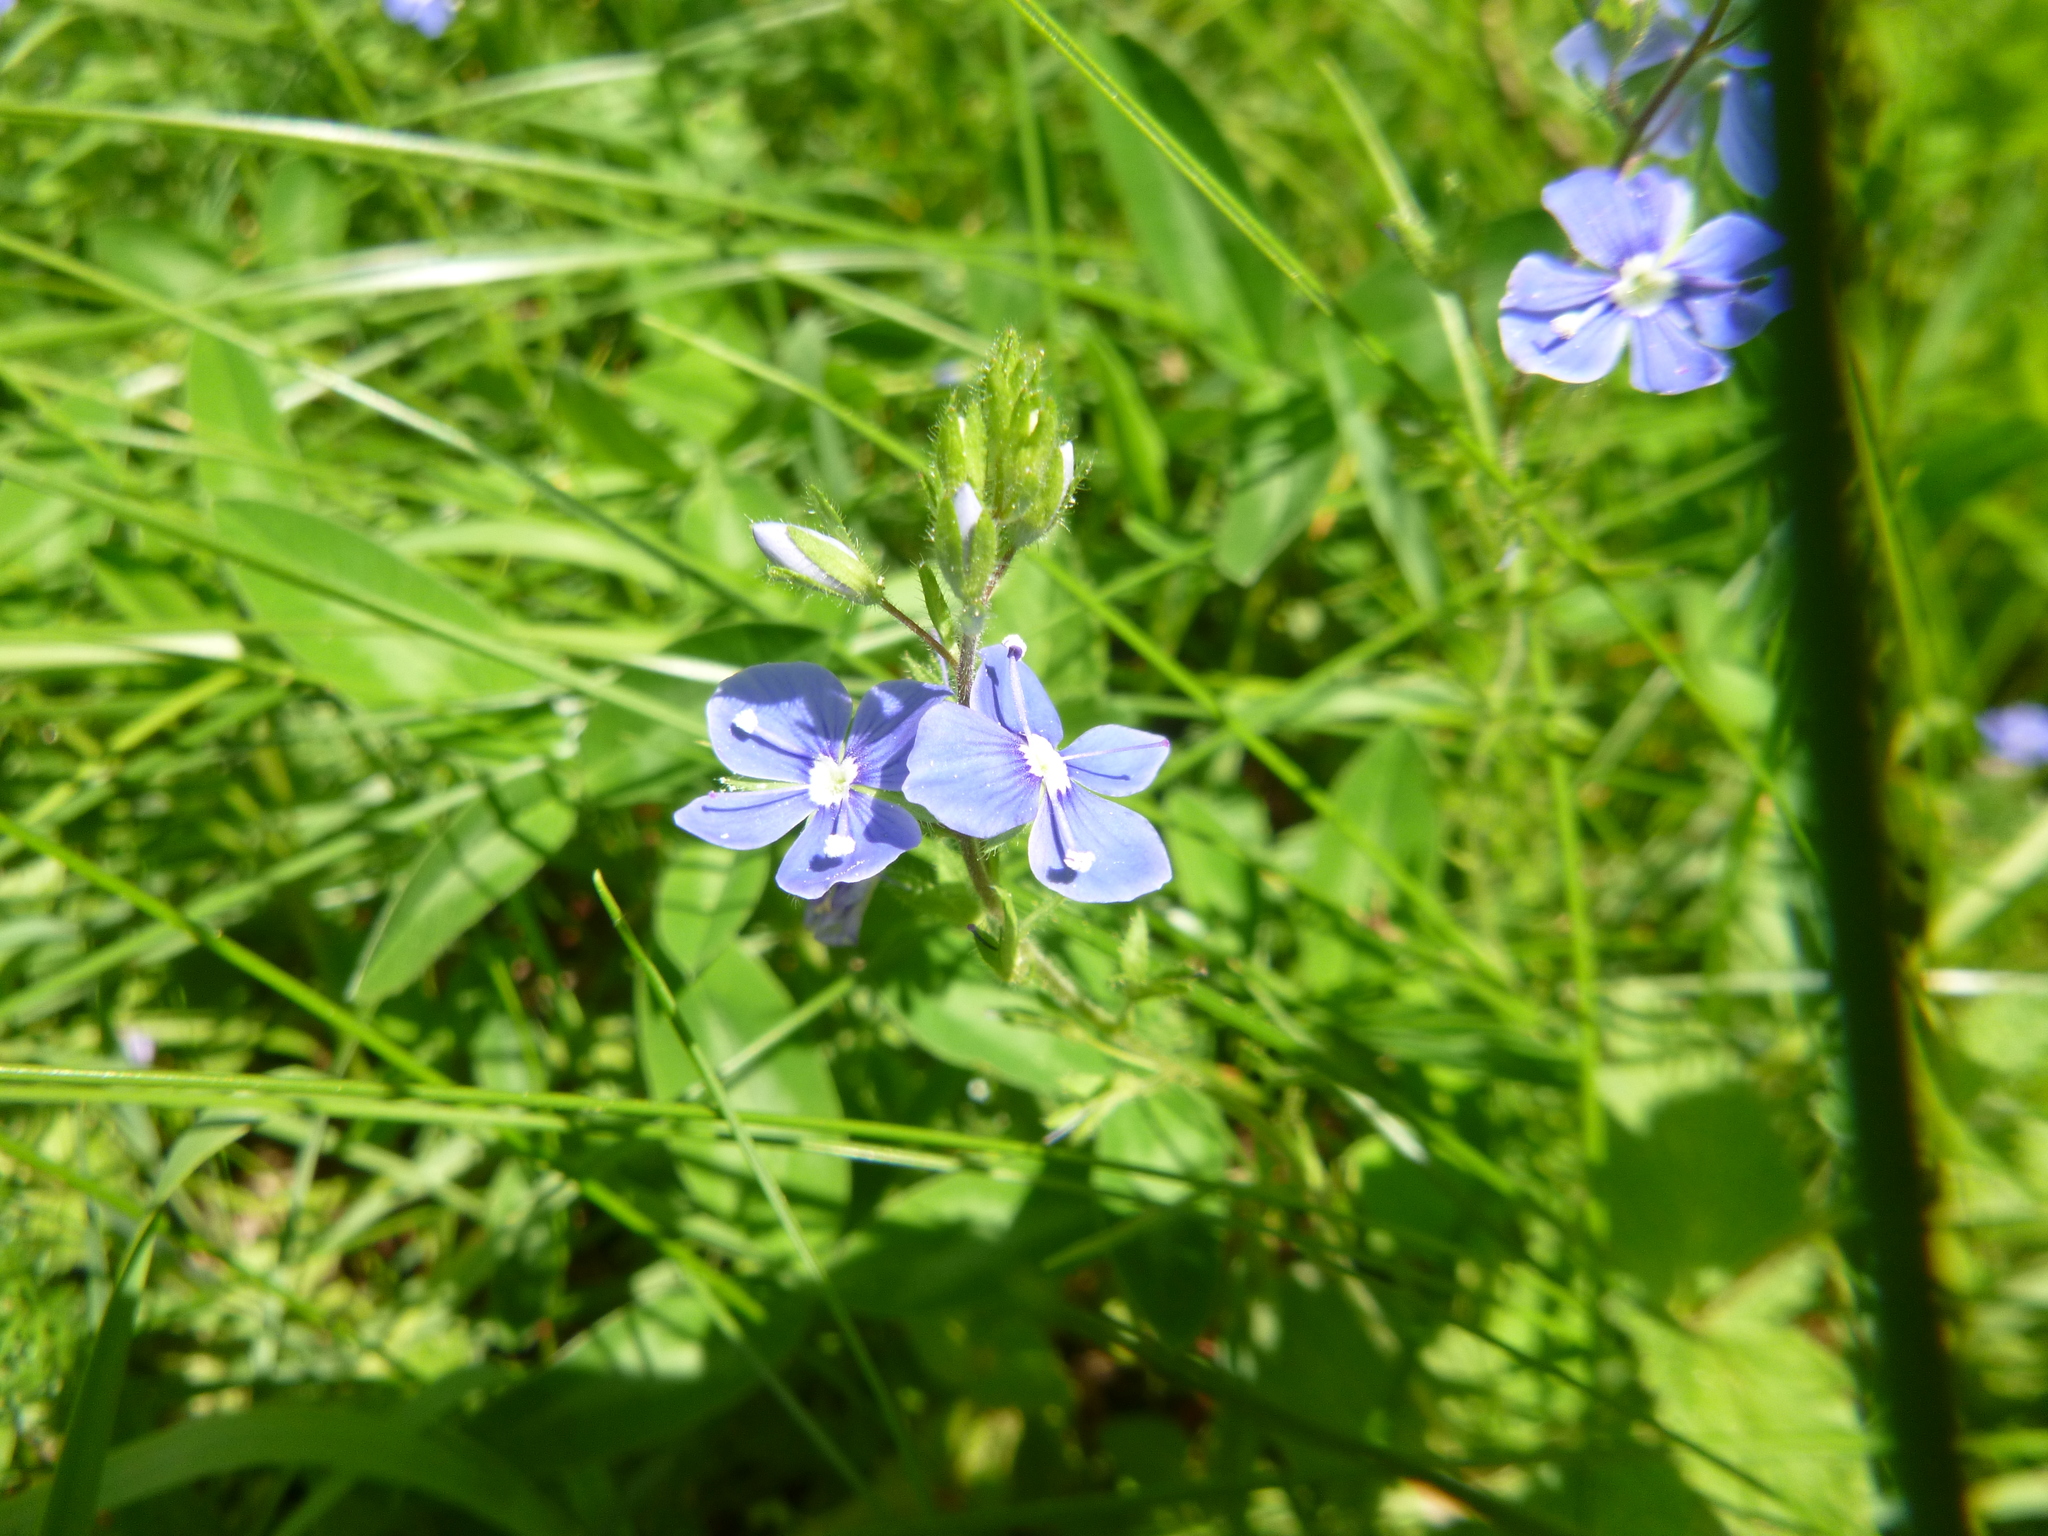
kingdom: Plantae
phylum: Tracheophyta
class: Magnoliopsida
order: Lamiales
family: Plantaginaceae
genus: Veronica
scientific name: Veronica chamaedrys
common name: Germander speedwell
